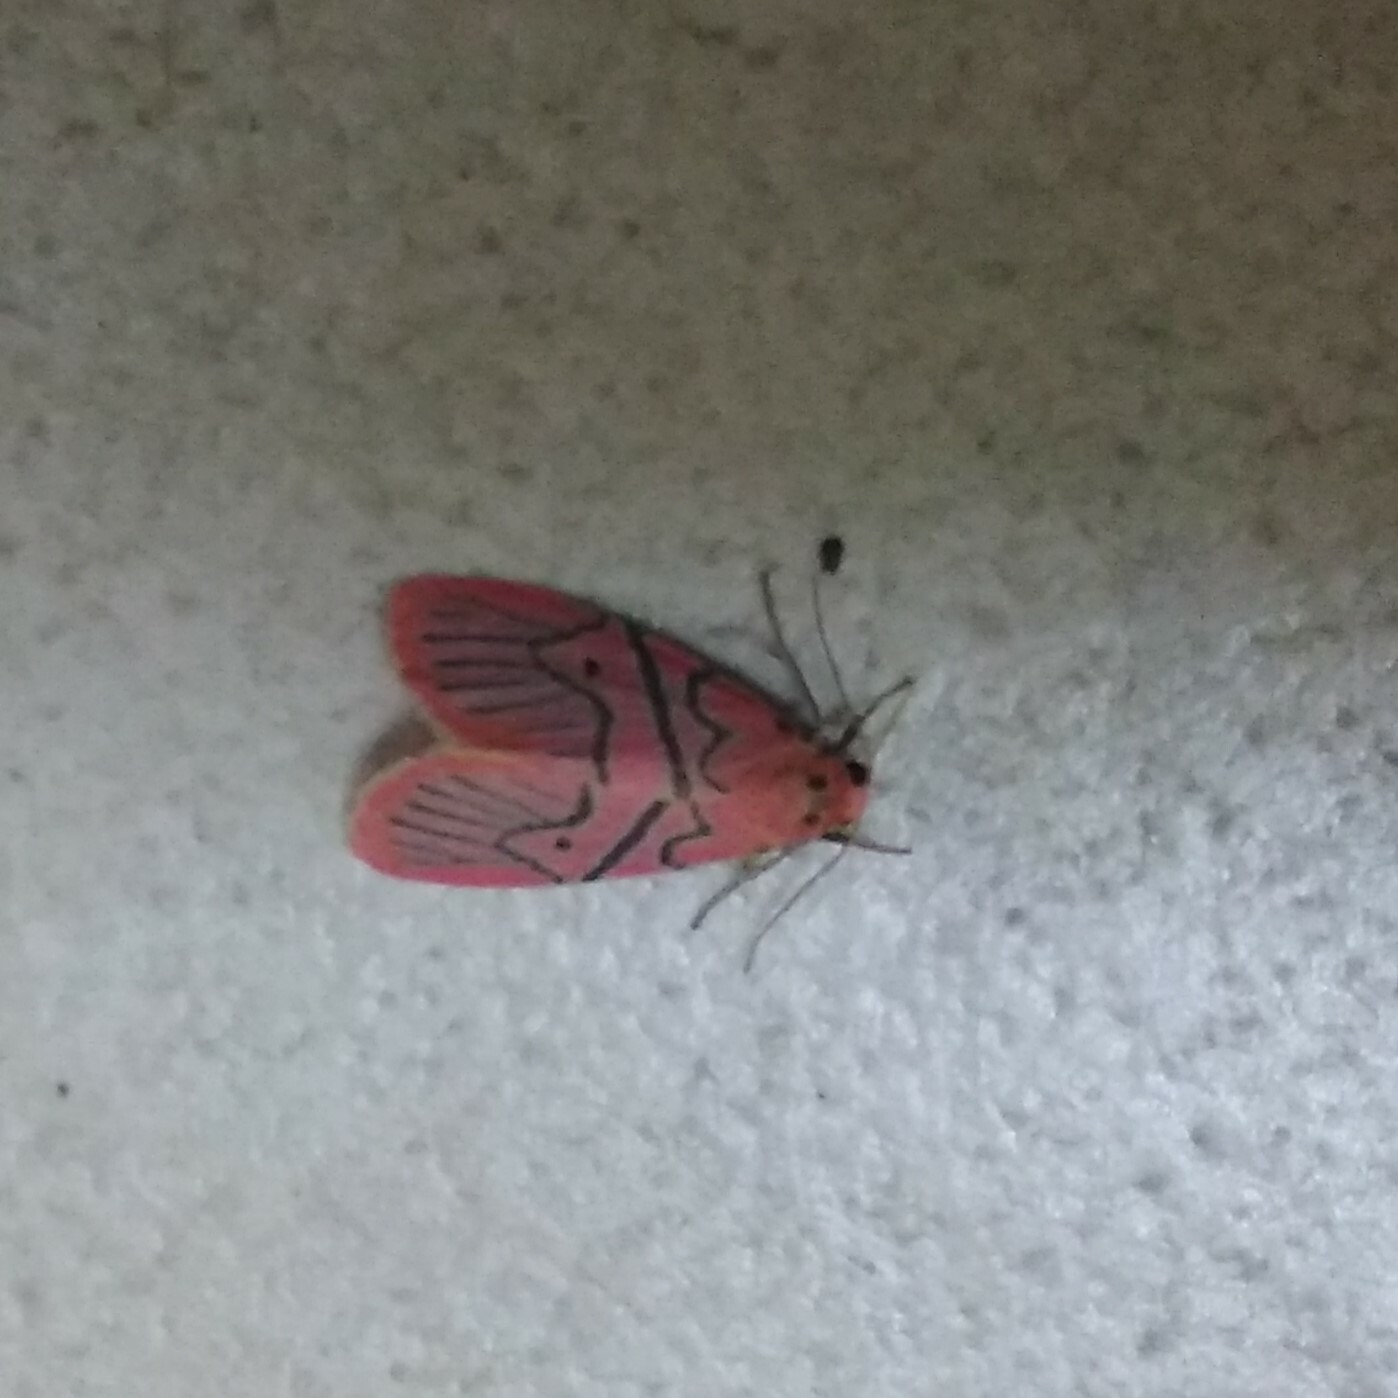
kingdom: Animalia
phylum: Arthropoda
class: Insecta
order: Lepidoptera
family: Erebidae
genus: Asuridia
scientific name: Asuridia miltochristoides
